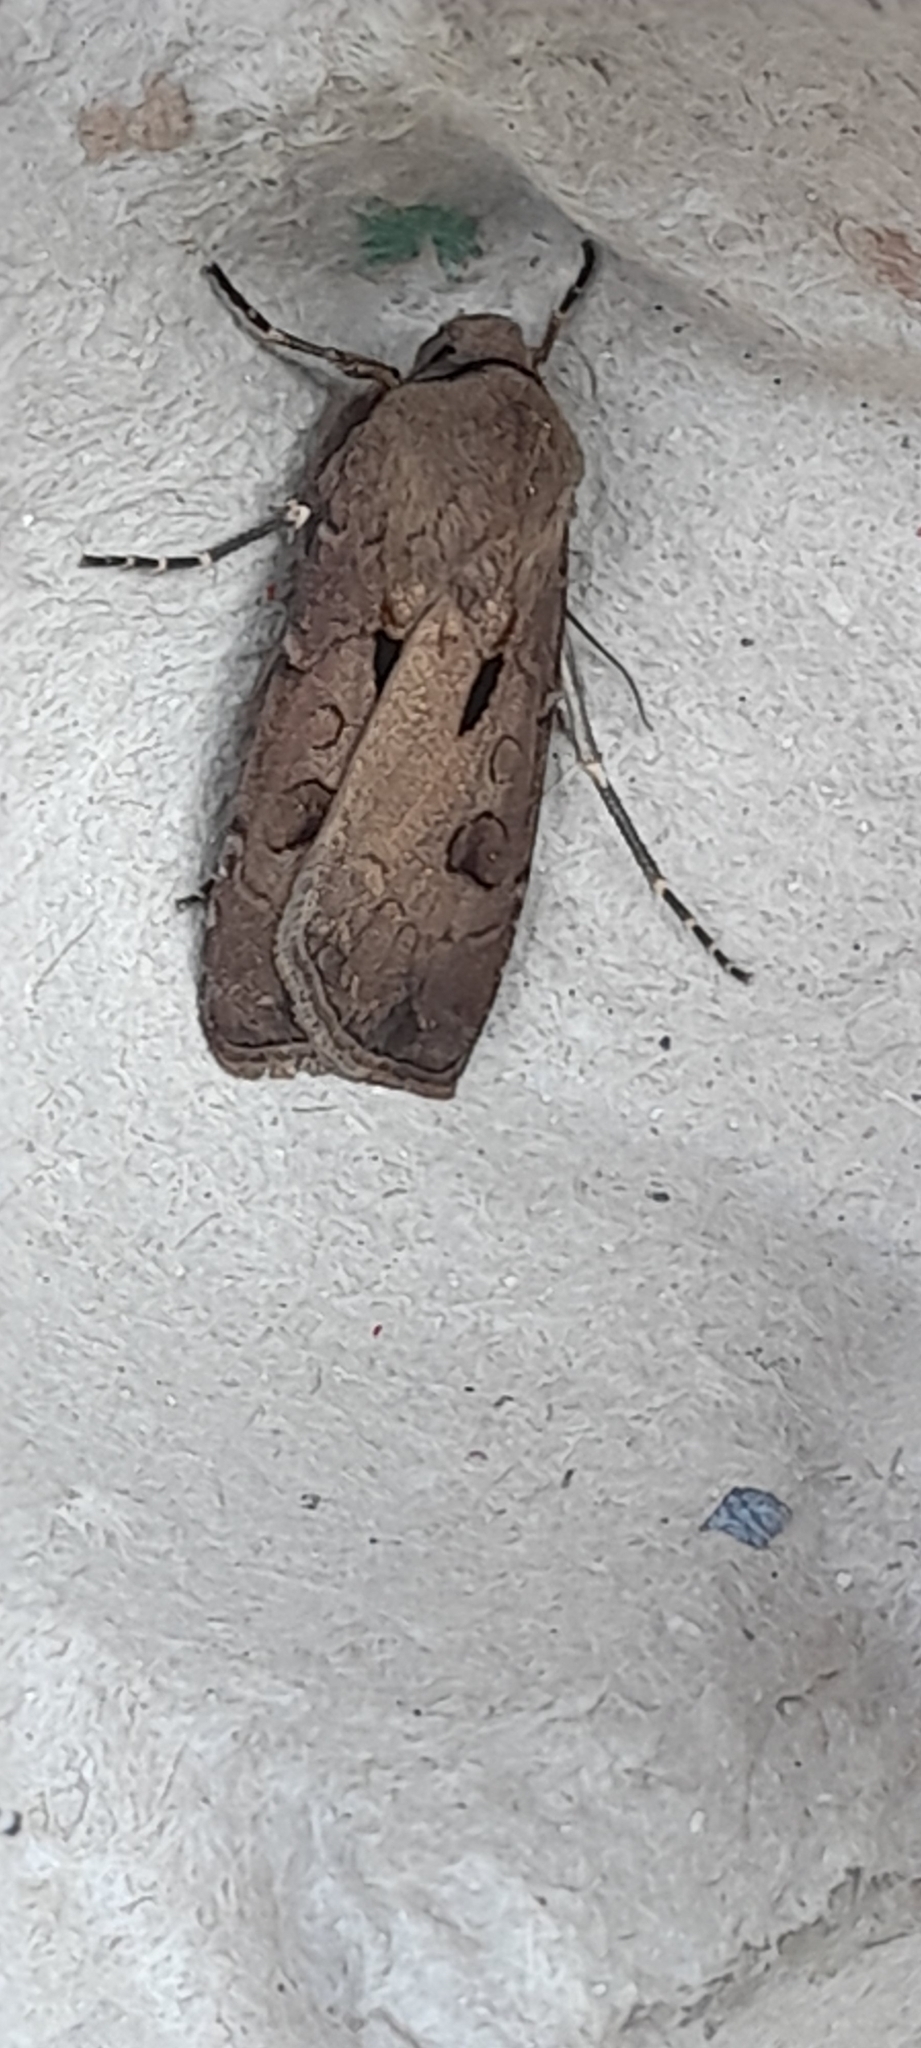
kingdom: Animalia
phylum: Arthropoda
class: Insecta
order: Lepidoptera
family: Noctuidae
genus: Agrotis
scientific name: Agrotis exclamationis
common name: Heart and dart
